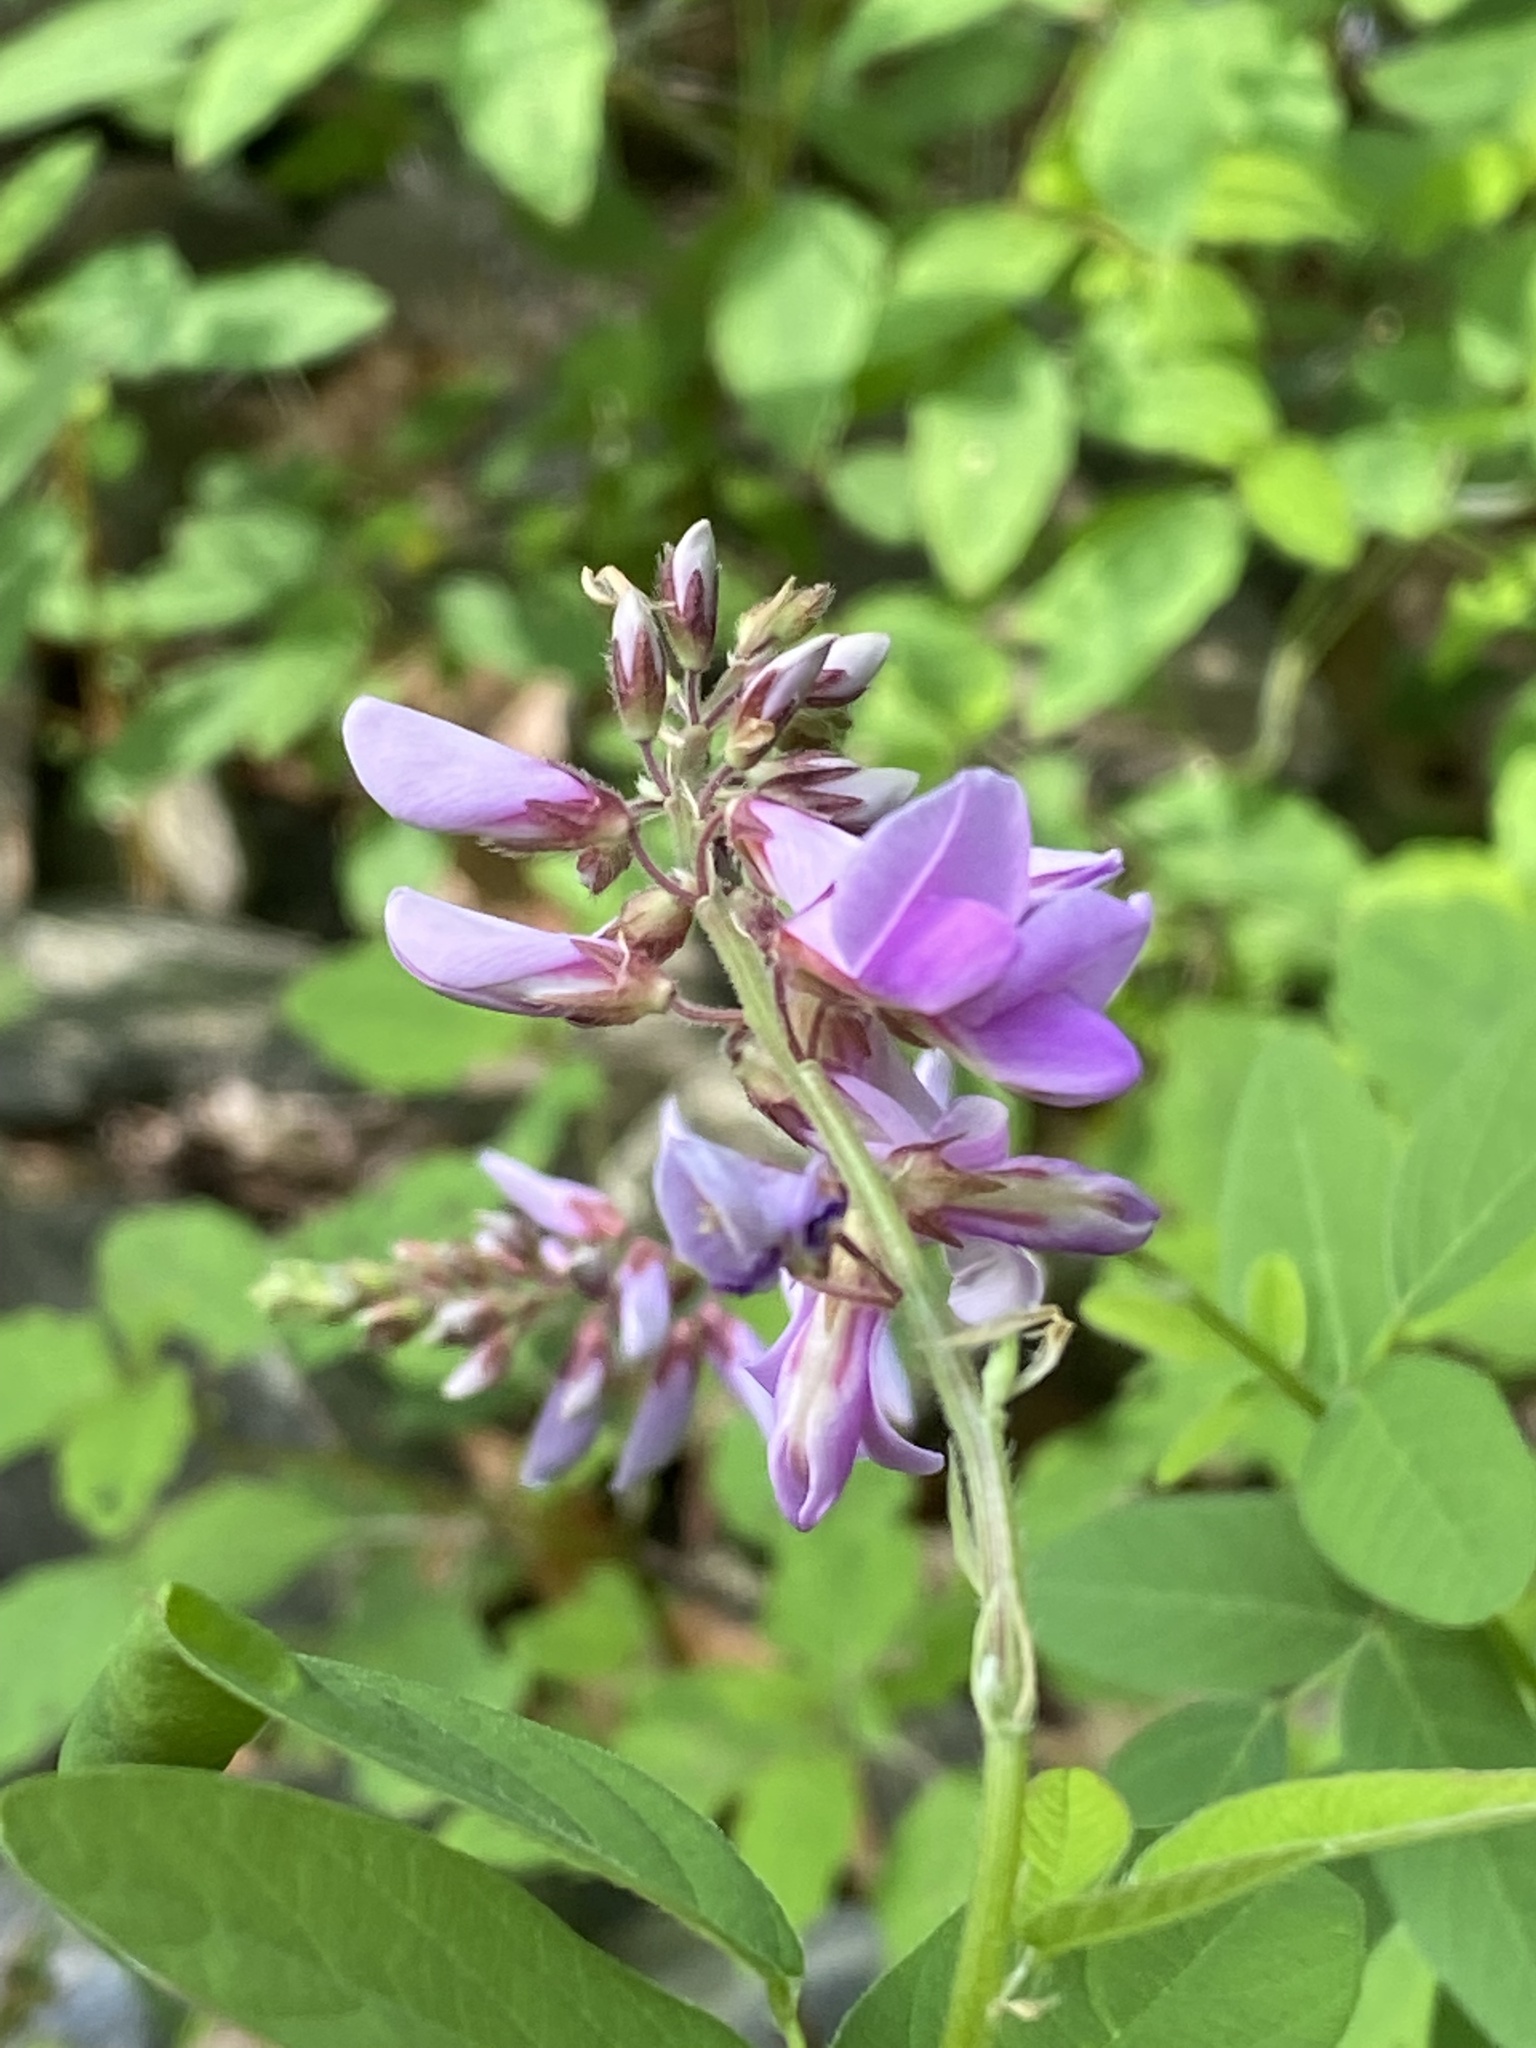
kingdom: Plantae
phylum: Tracheophyta
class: Magnoliopsida
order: Fabales
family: Fabaceae
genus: Desmodium
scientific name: Desmodium canadense
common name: Canada tick-trefoil
